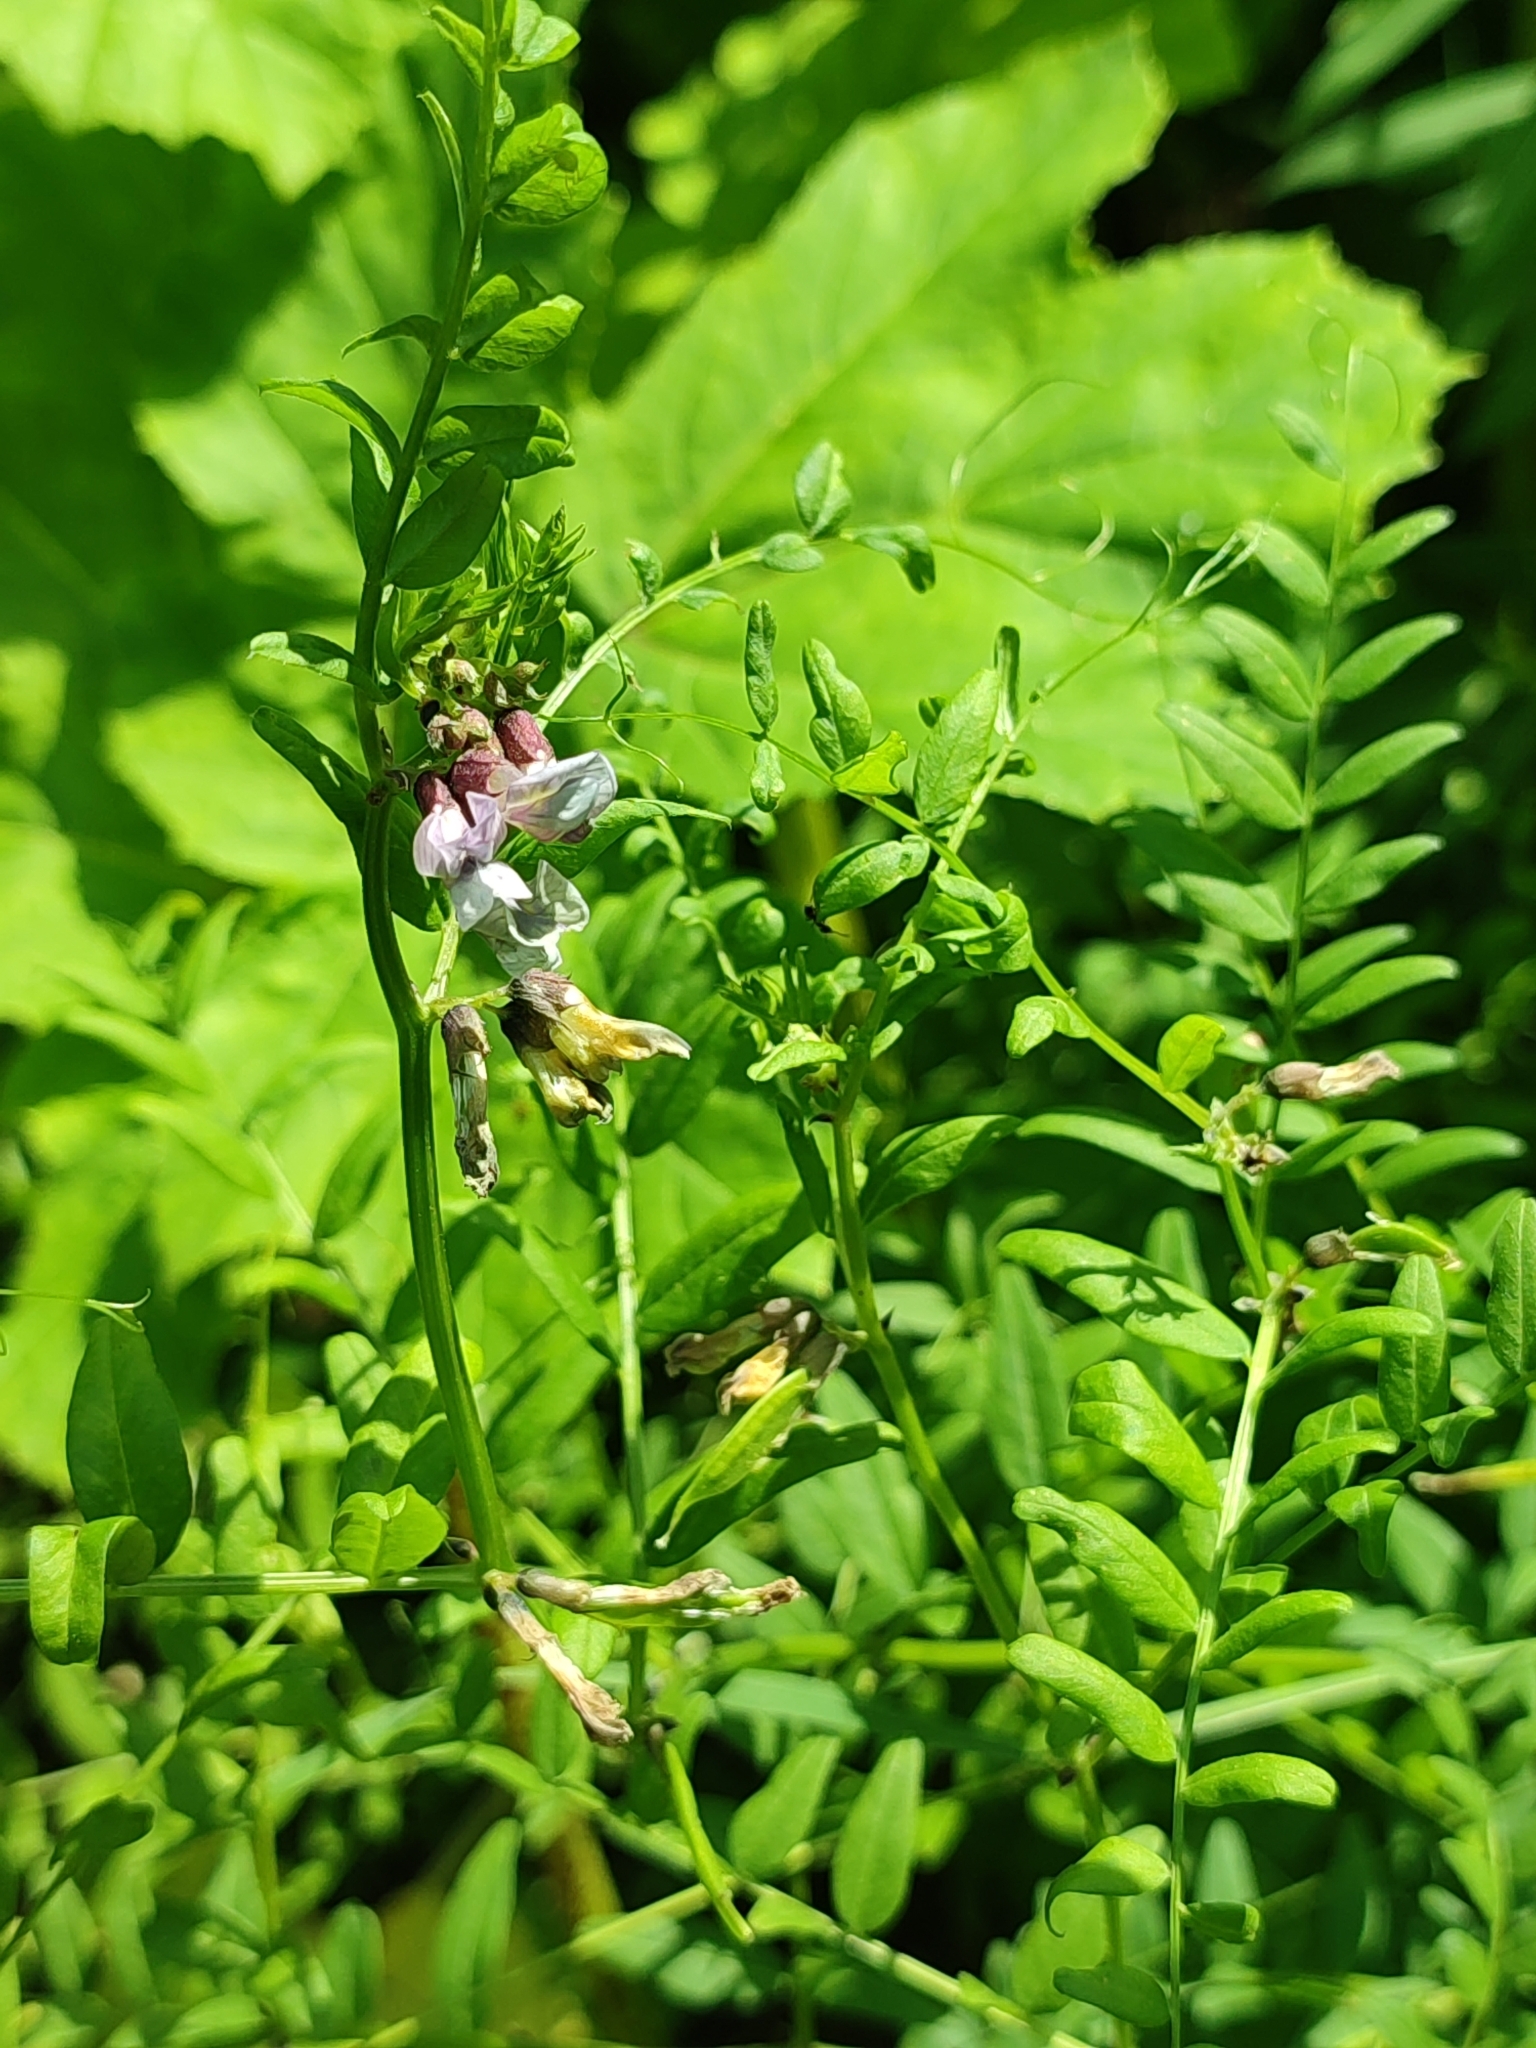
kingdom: Plantae
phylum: Tracheophyta
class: Magnoliopsida
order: Fabales
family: Fabaceae
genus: Vicia
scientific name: Vicia sepium
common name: Bush vetch
